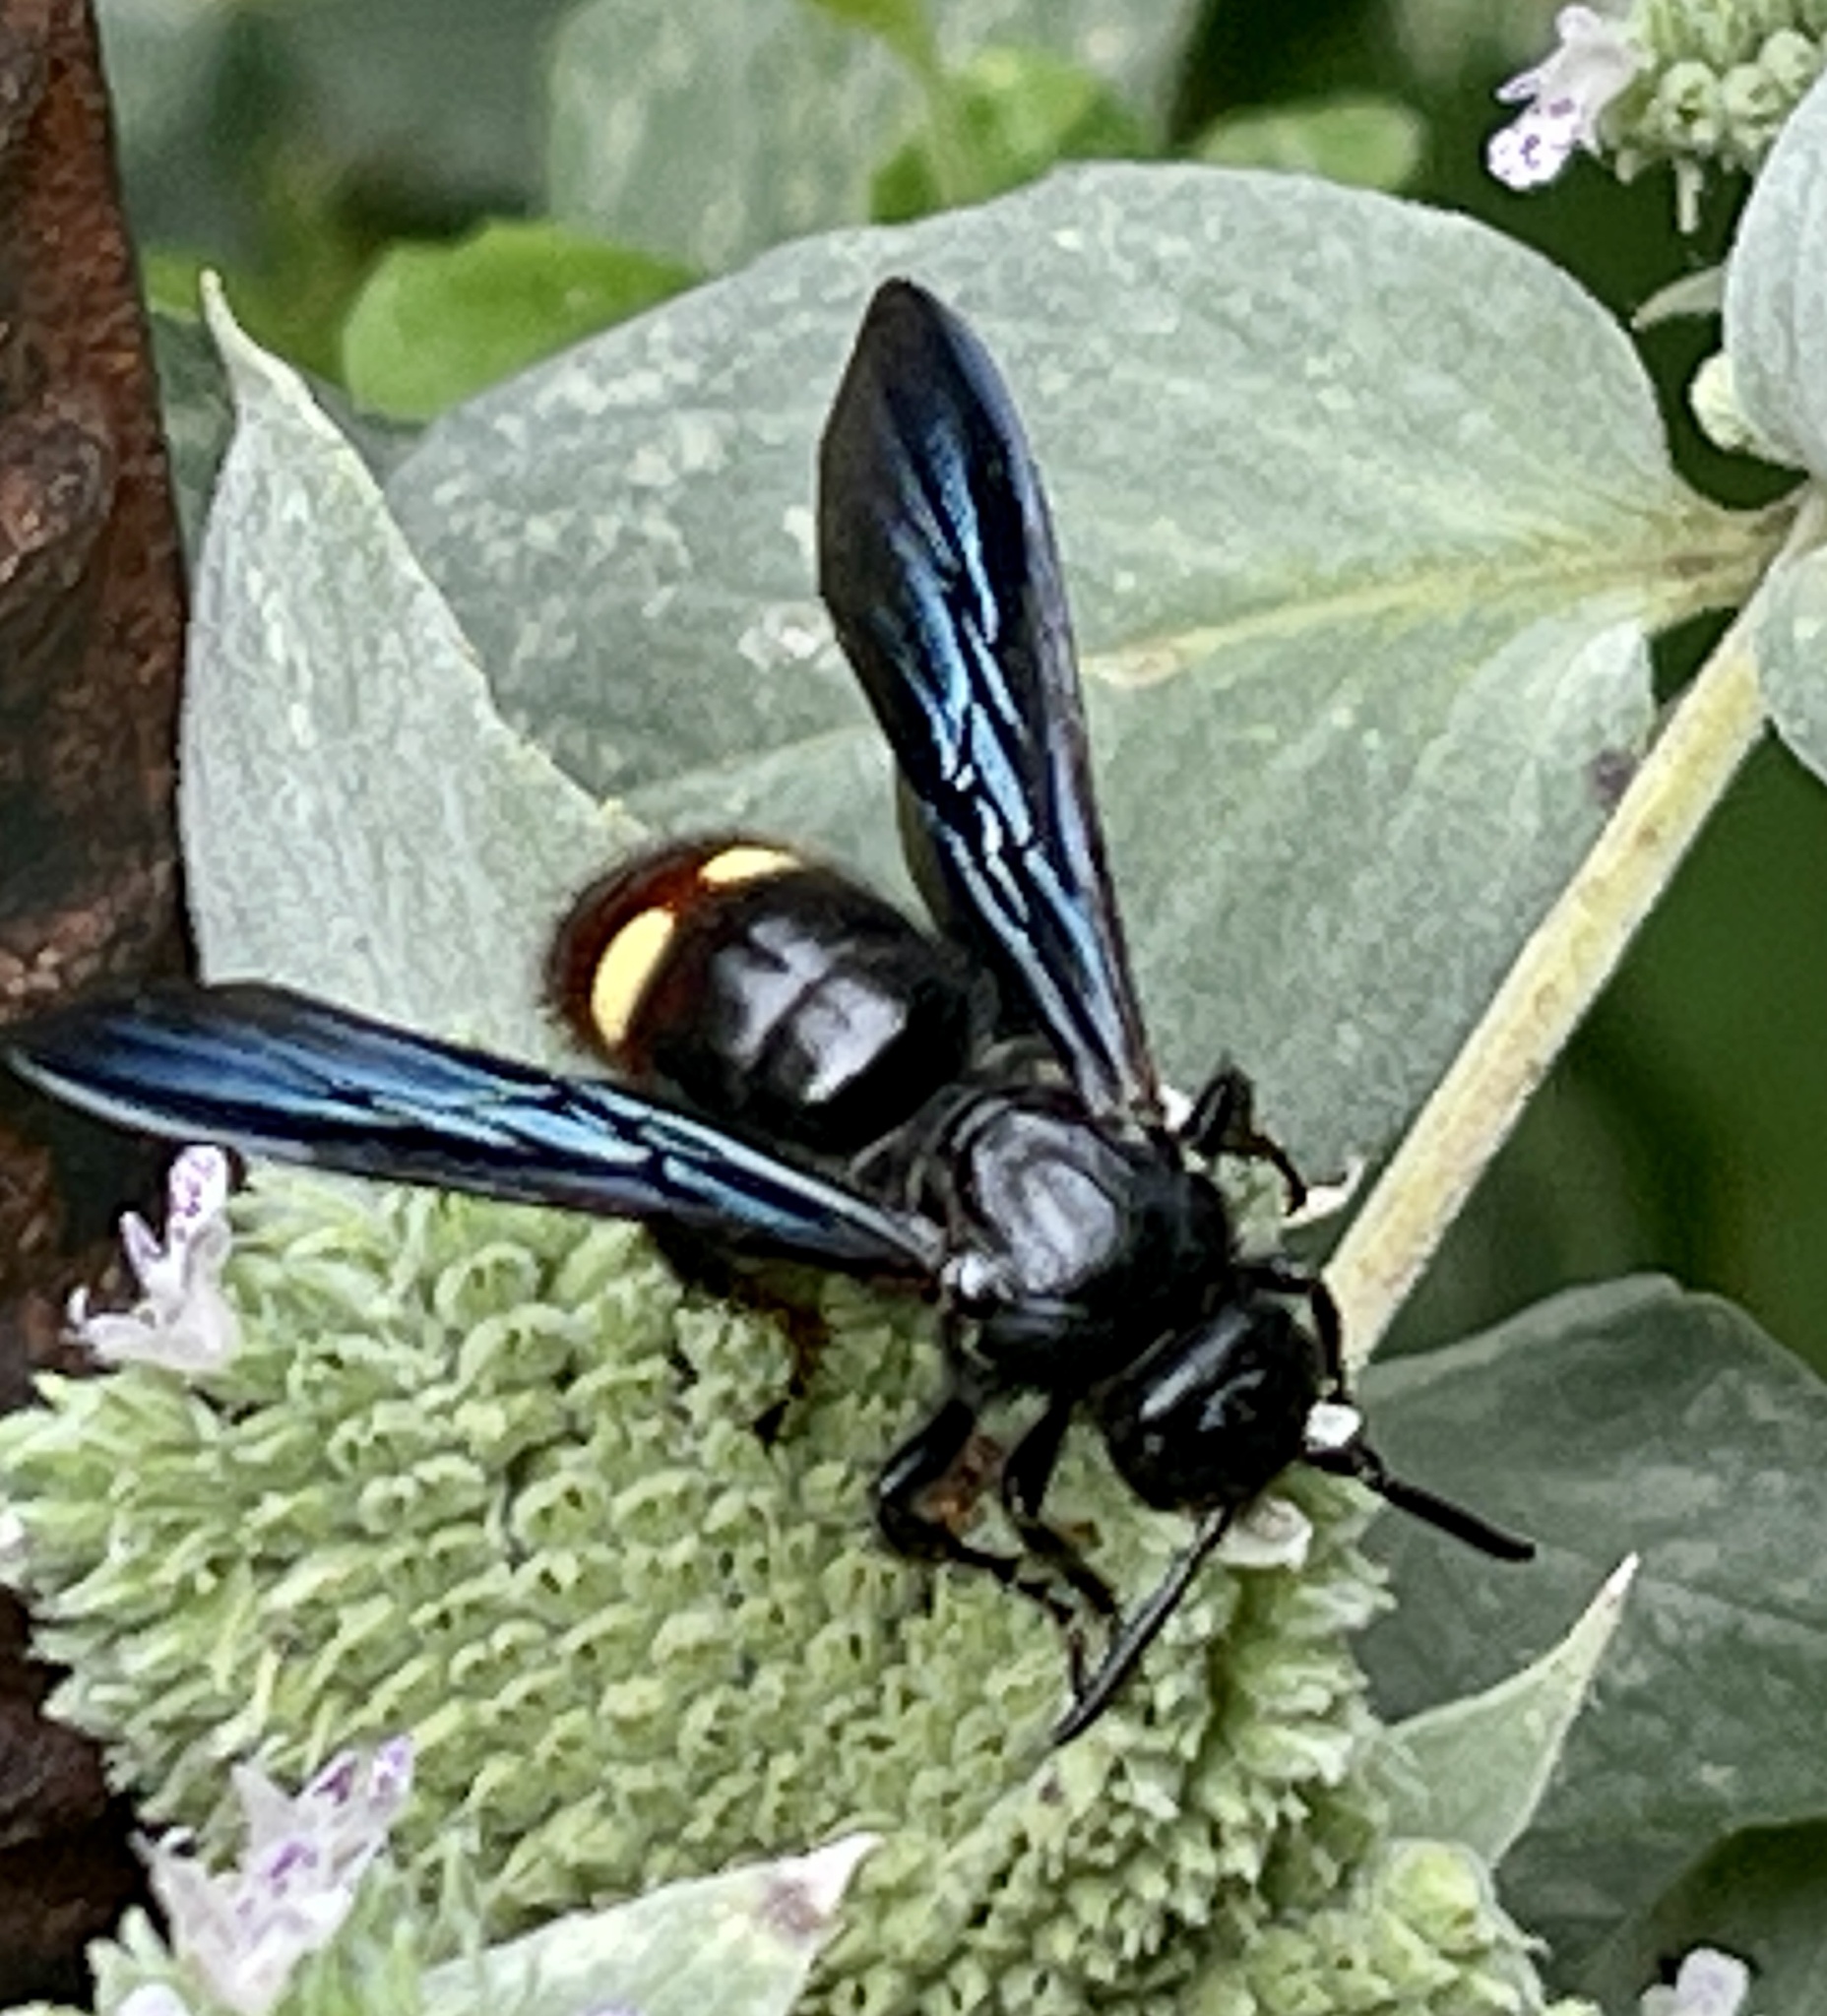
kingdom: Animalia
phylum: Arthropoda
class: Insecta
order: Hymenoptera
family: Scoliidae
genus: Scolia
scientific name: Scolia dubia
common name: Blue-winged scoliid wasp
